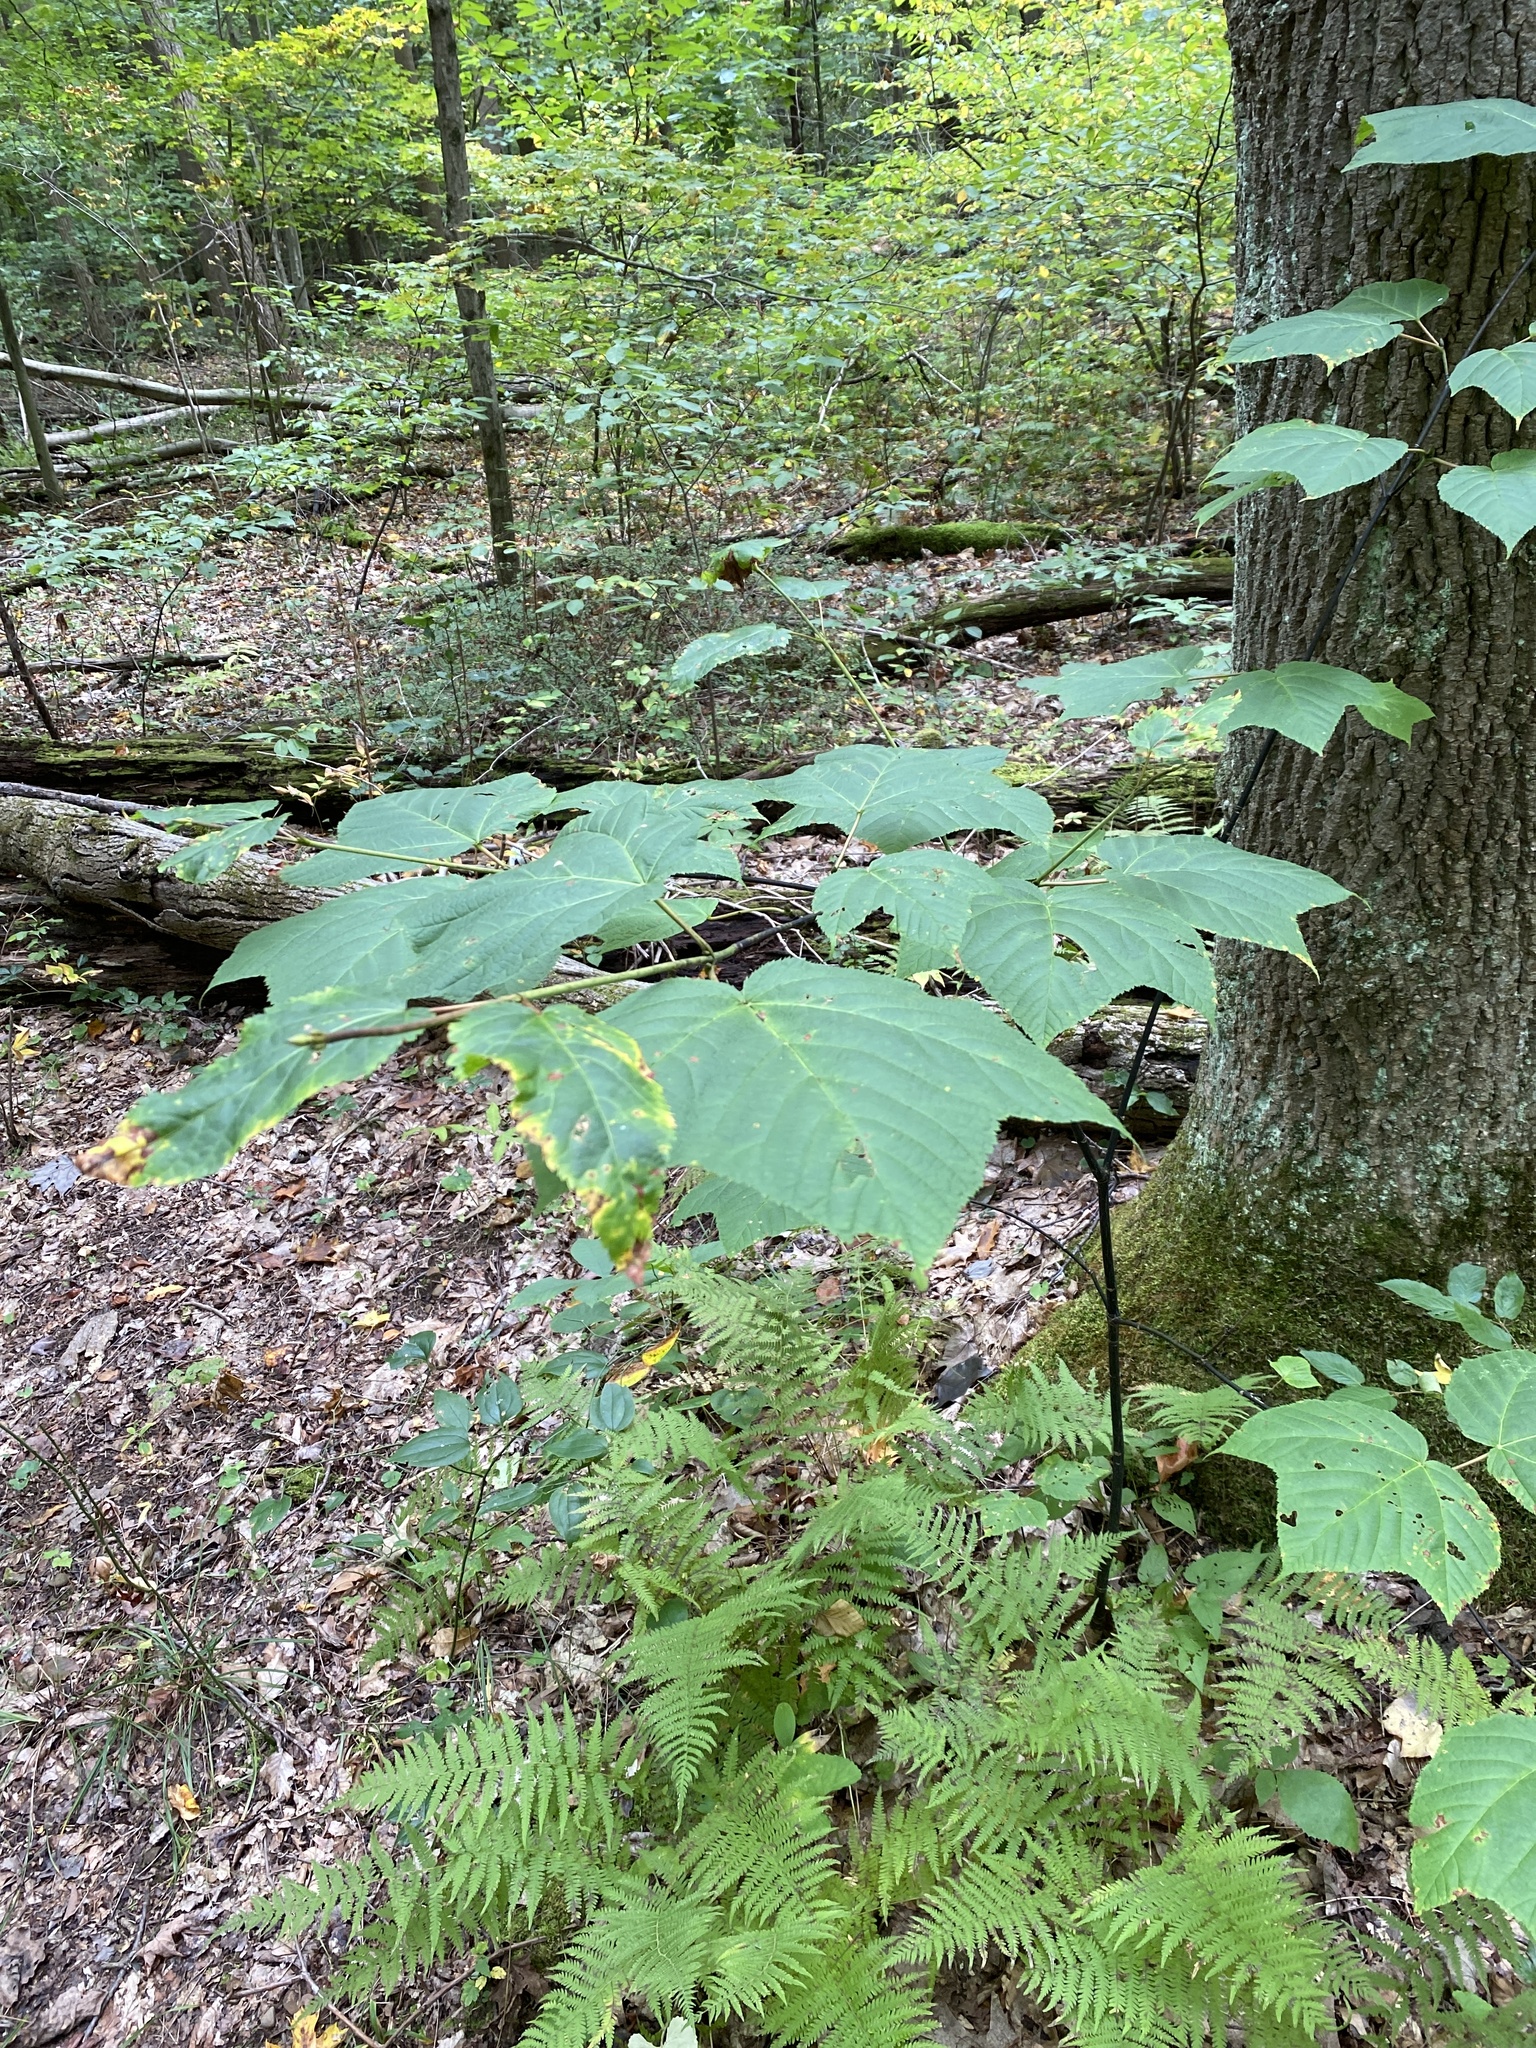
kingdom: Plantae
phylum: Tracheophyta
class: Magnoliopsida
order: Sapindales
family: Sapindaceae
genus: Acer
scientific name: Acer pensylvanicum
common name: Moosewood
